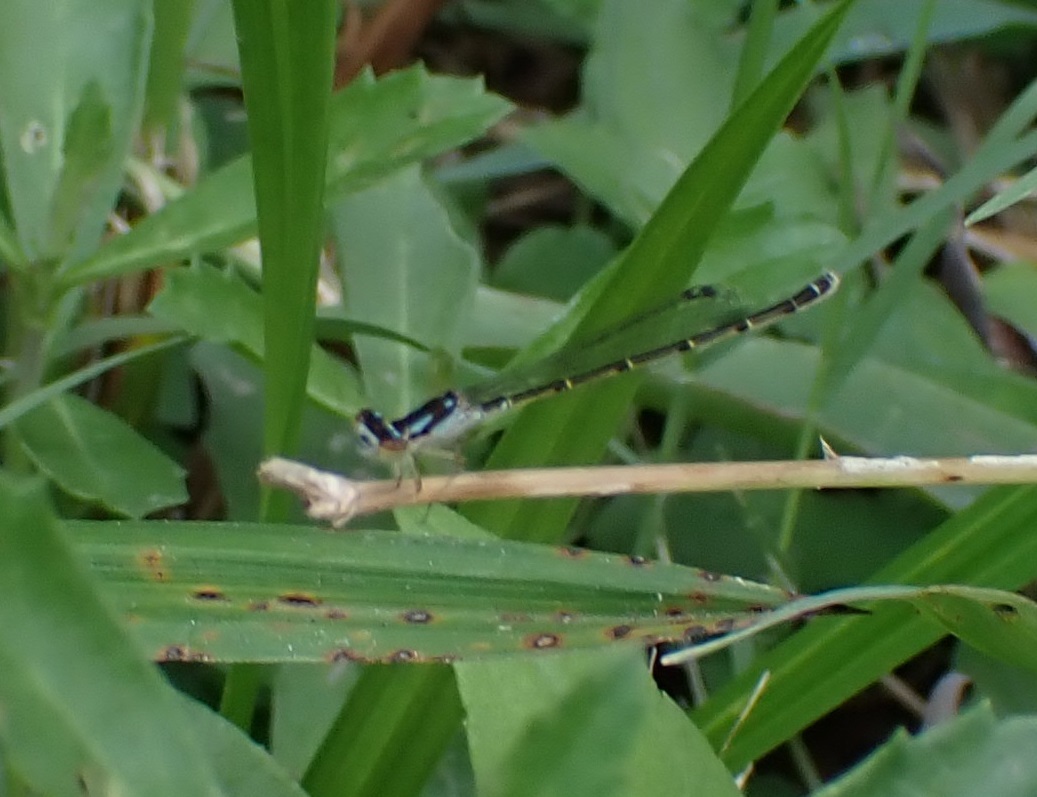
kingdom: Animalia
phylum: Arthropoda
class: Insecta
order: Odonata
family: Coenagrionidae
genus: Ischnura
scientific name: Ischnura posita
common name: Fragile forktail
